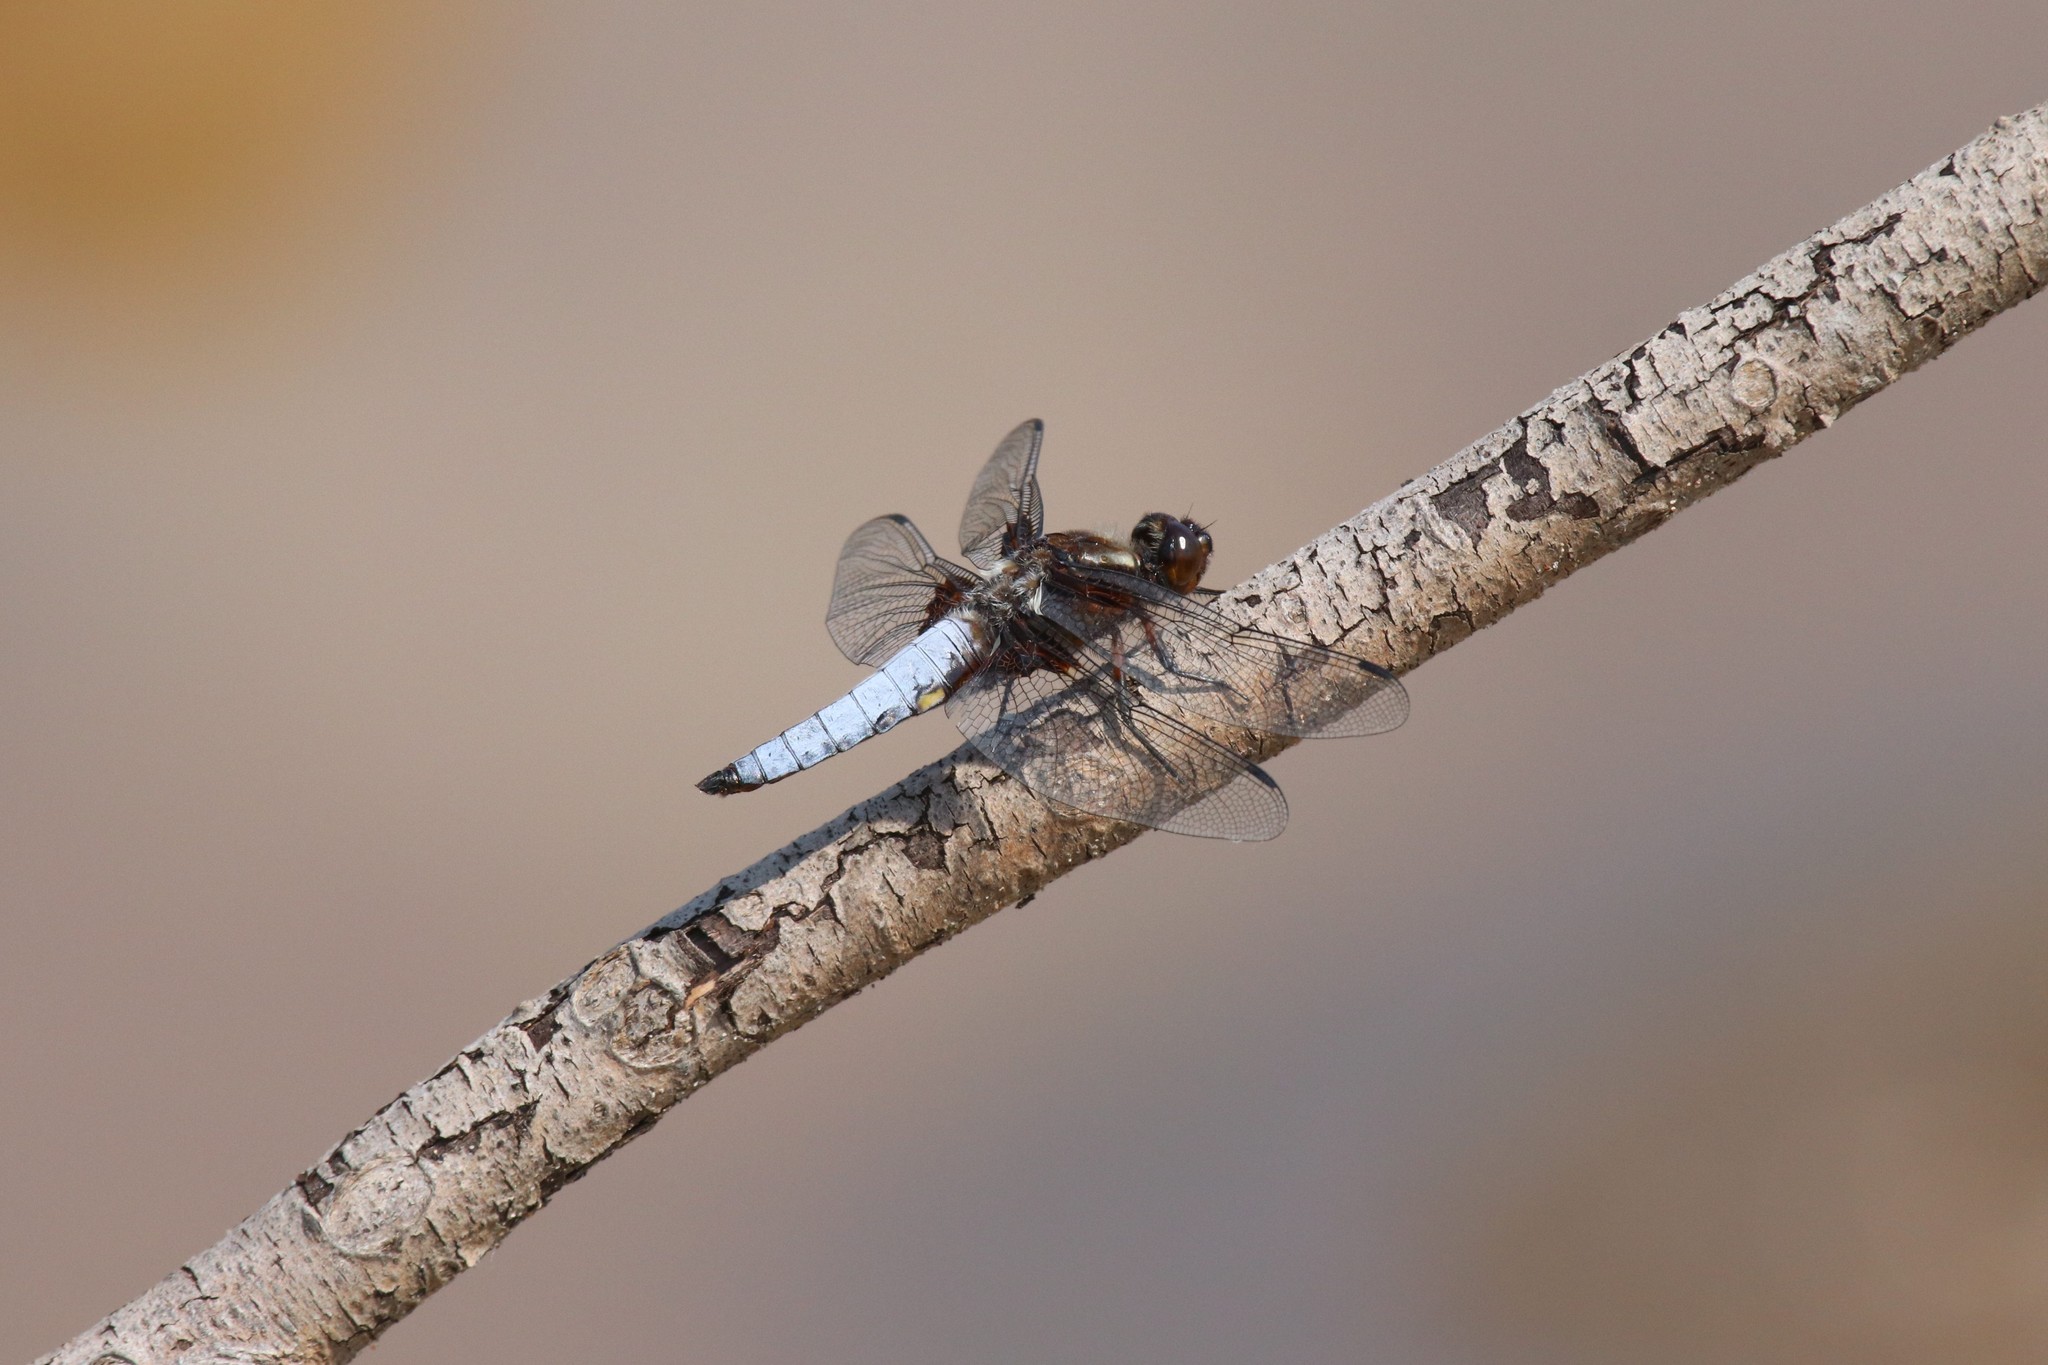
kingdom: Animalia
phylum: Arthropoda
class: Insecta
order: Odonata
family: Libellulidae
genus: Libellula
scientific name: Libellula depressa
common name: Broad-bodied chaser
